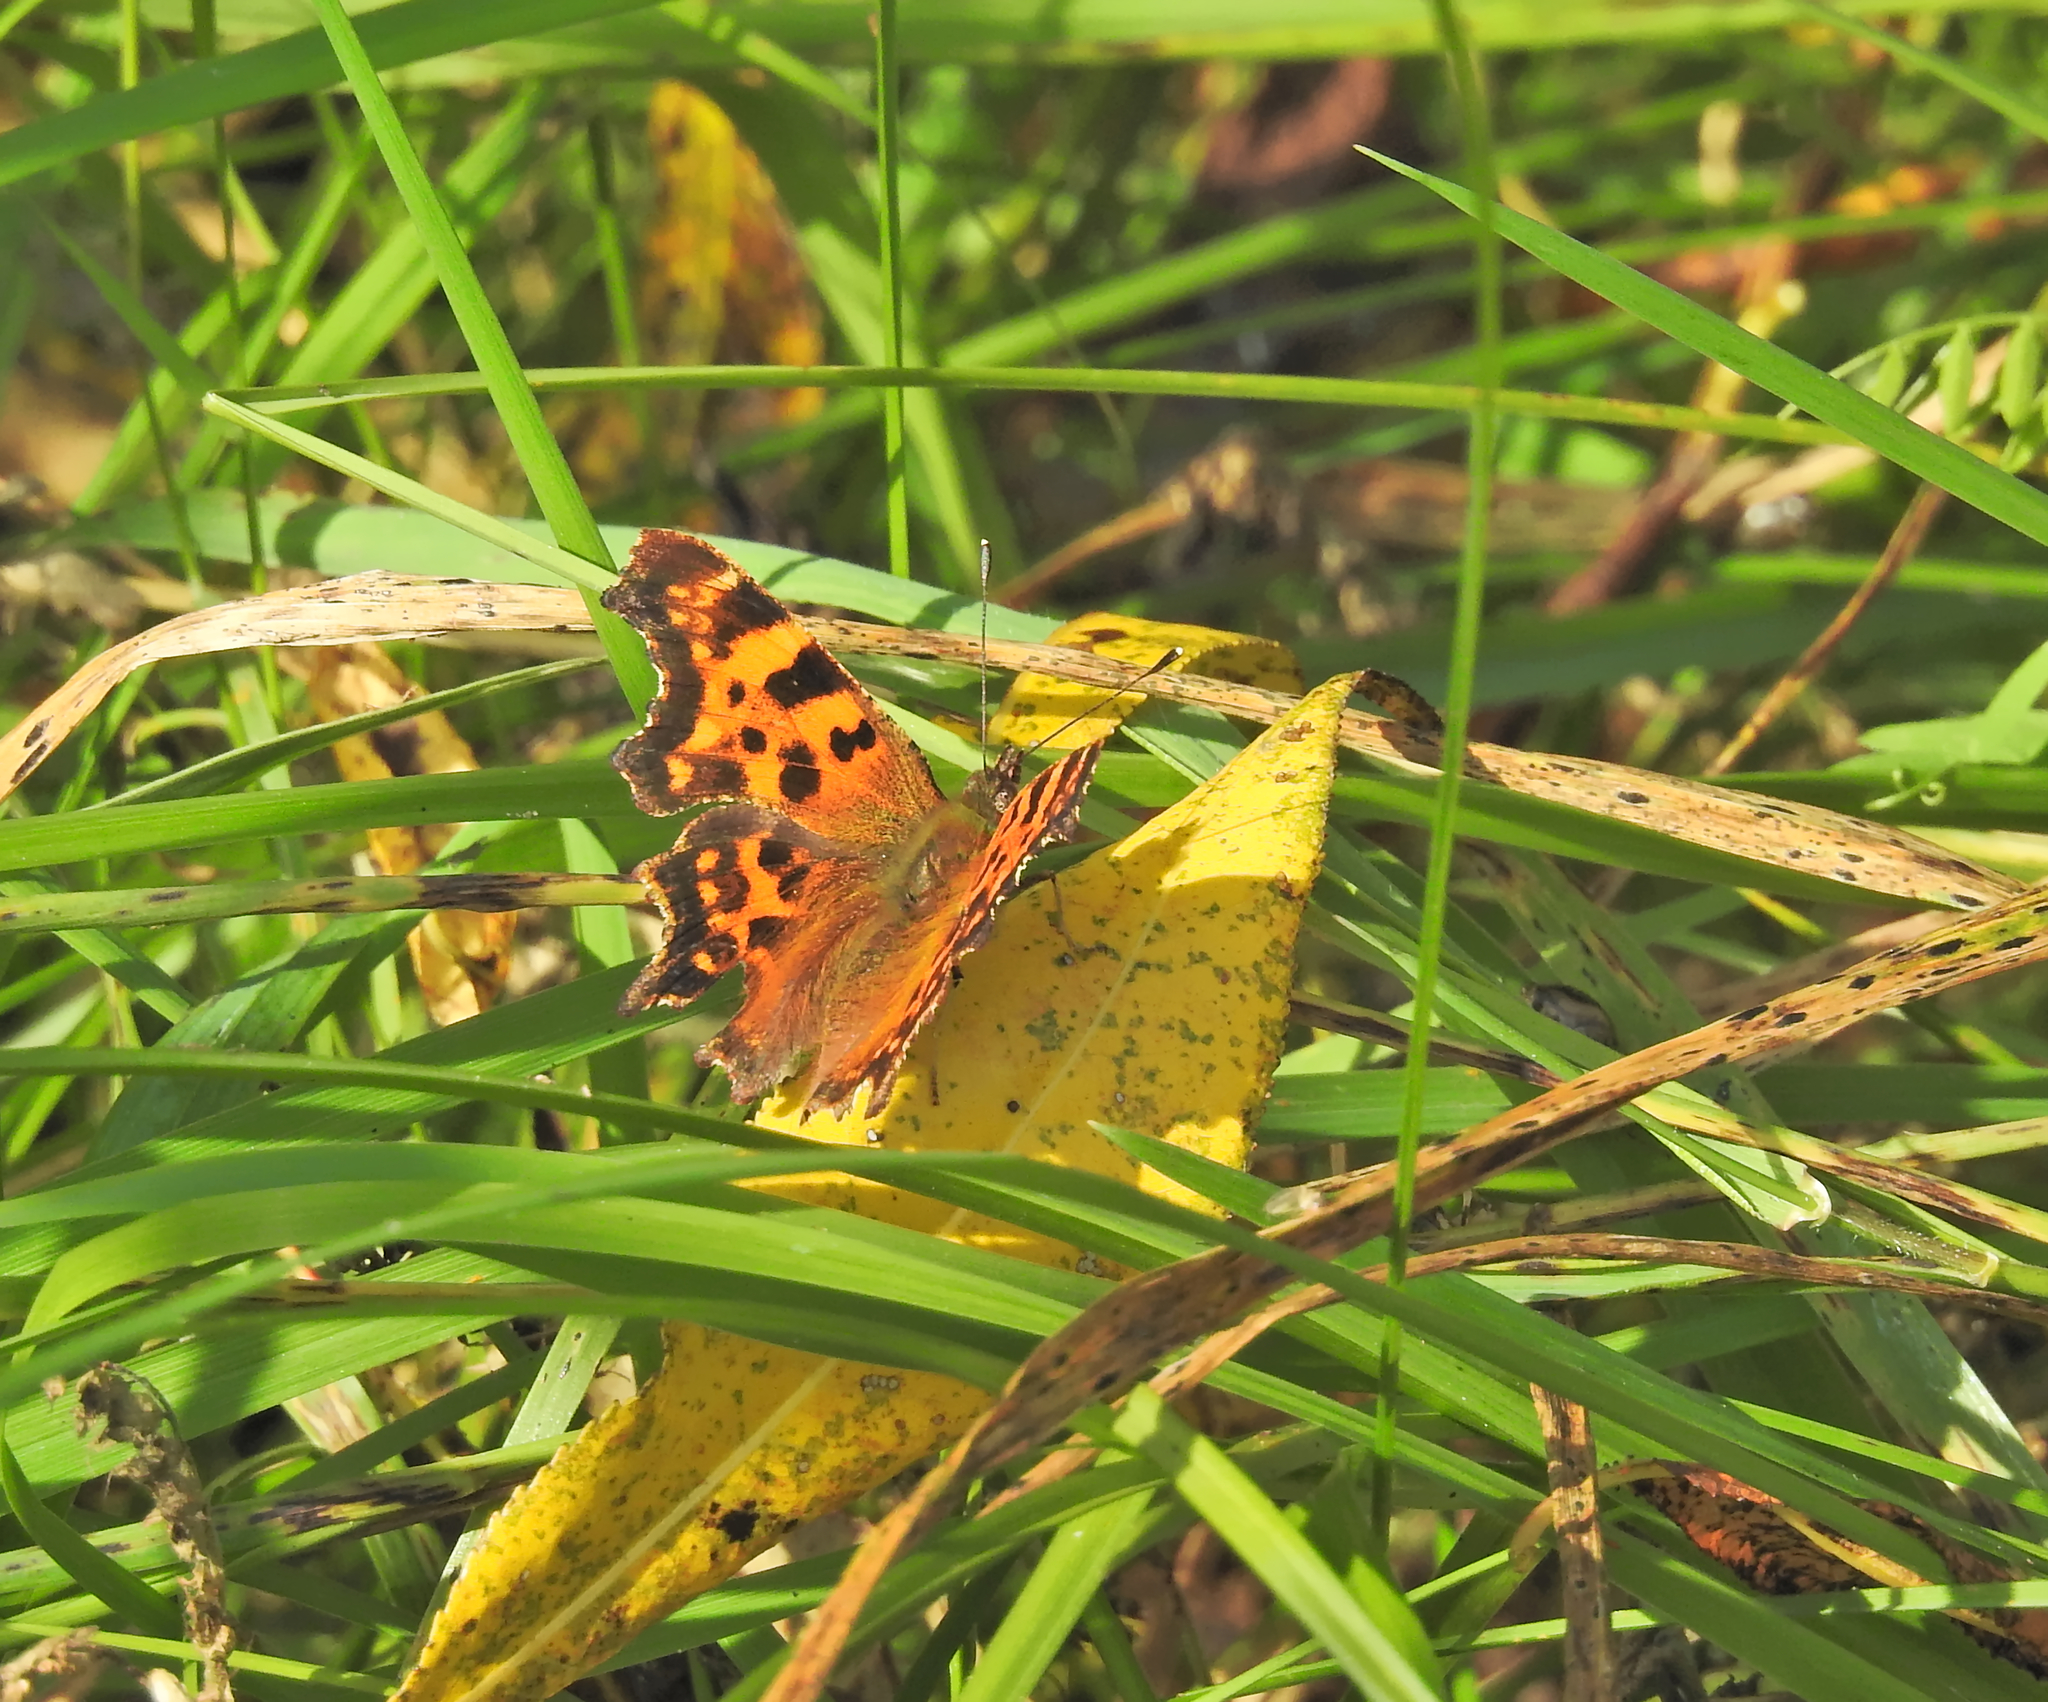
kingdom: Animalia
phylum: Arthropoda
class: Insecta
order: Lepidoptera
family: Nymphalidae
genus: Polygonia
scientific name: Polygonia c-album
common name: Comma
